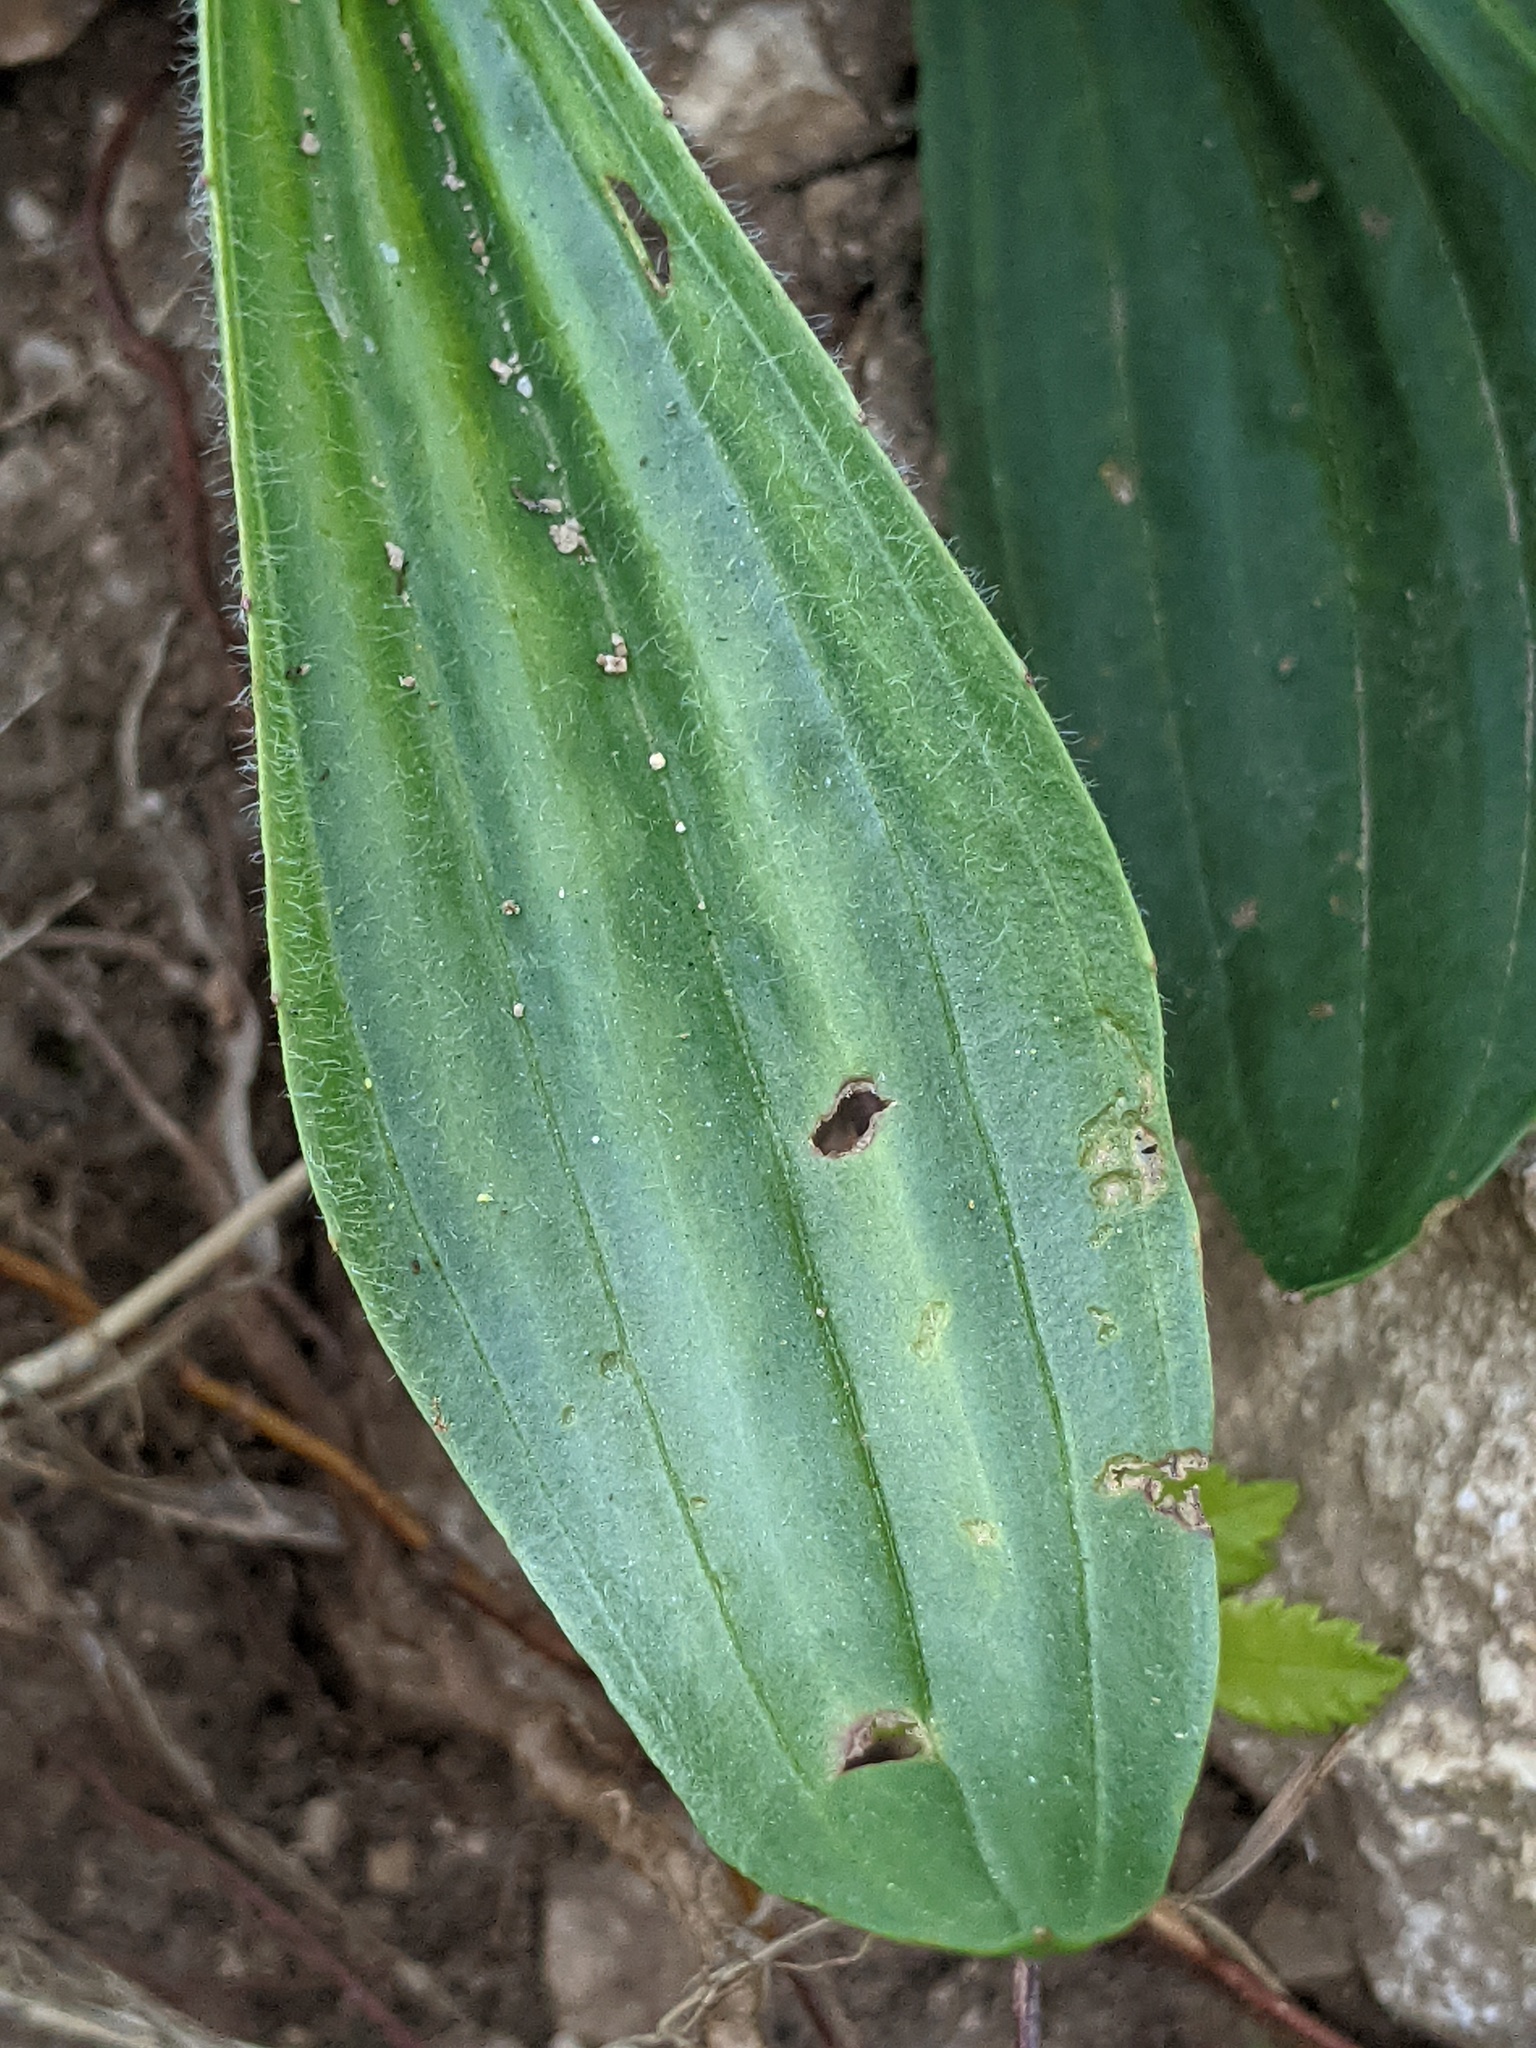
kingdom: Plantae
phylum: Tracheophyta
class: Magnoliopsida
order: Lamiales
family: Plantaginaceae
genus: Plantago
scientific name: Plantago lanceolata
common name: Ribwort plantain
